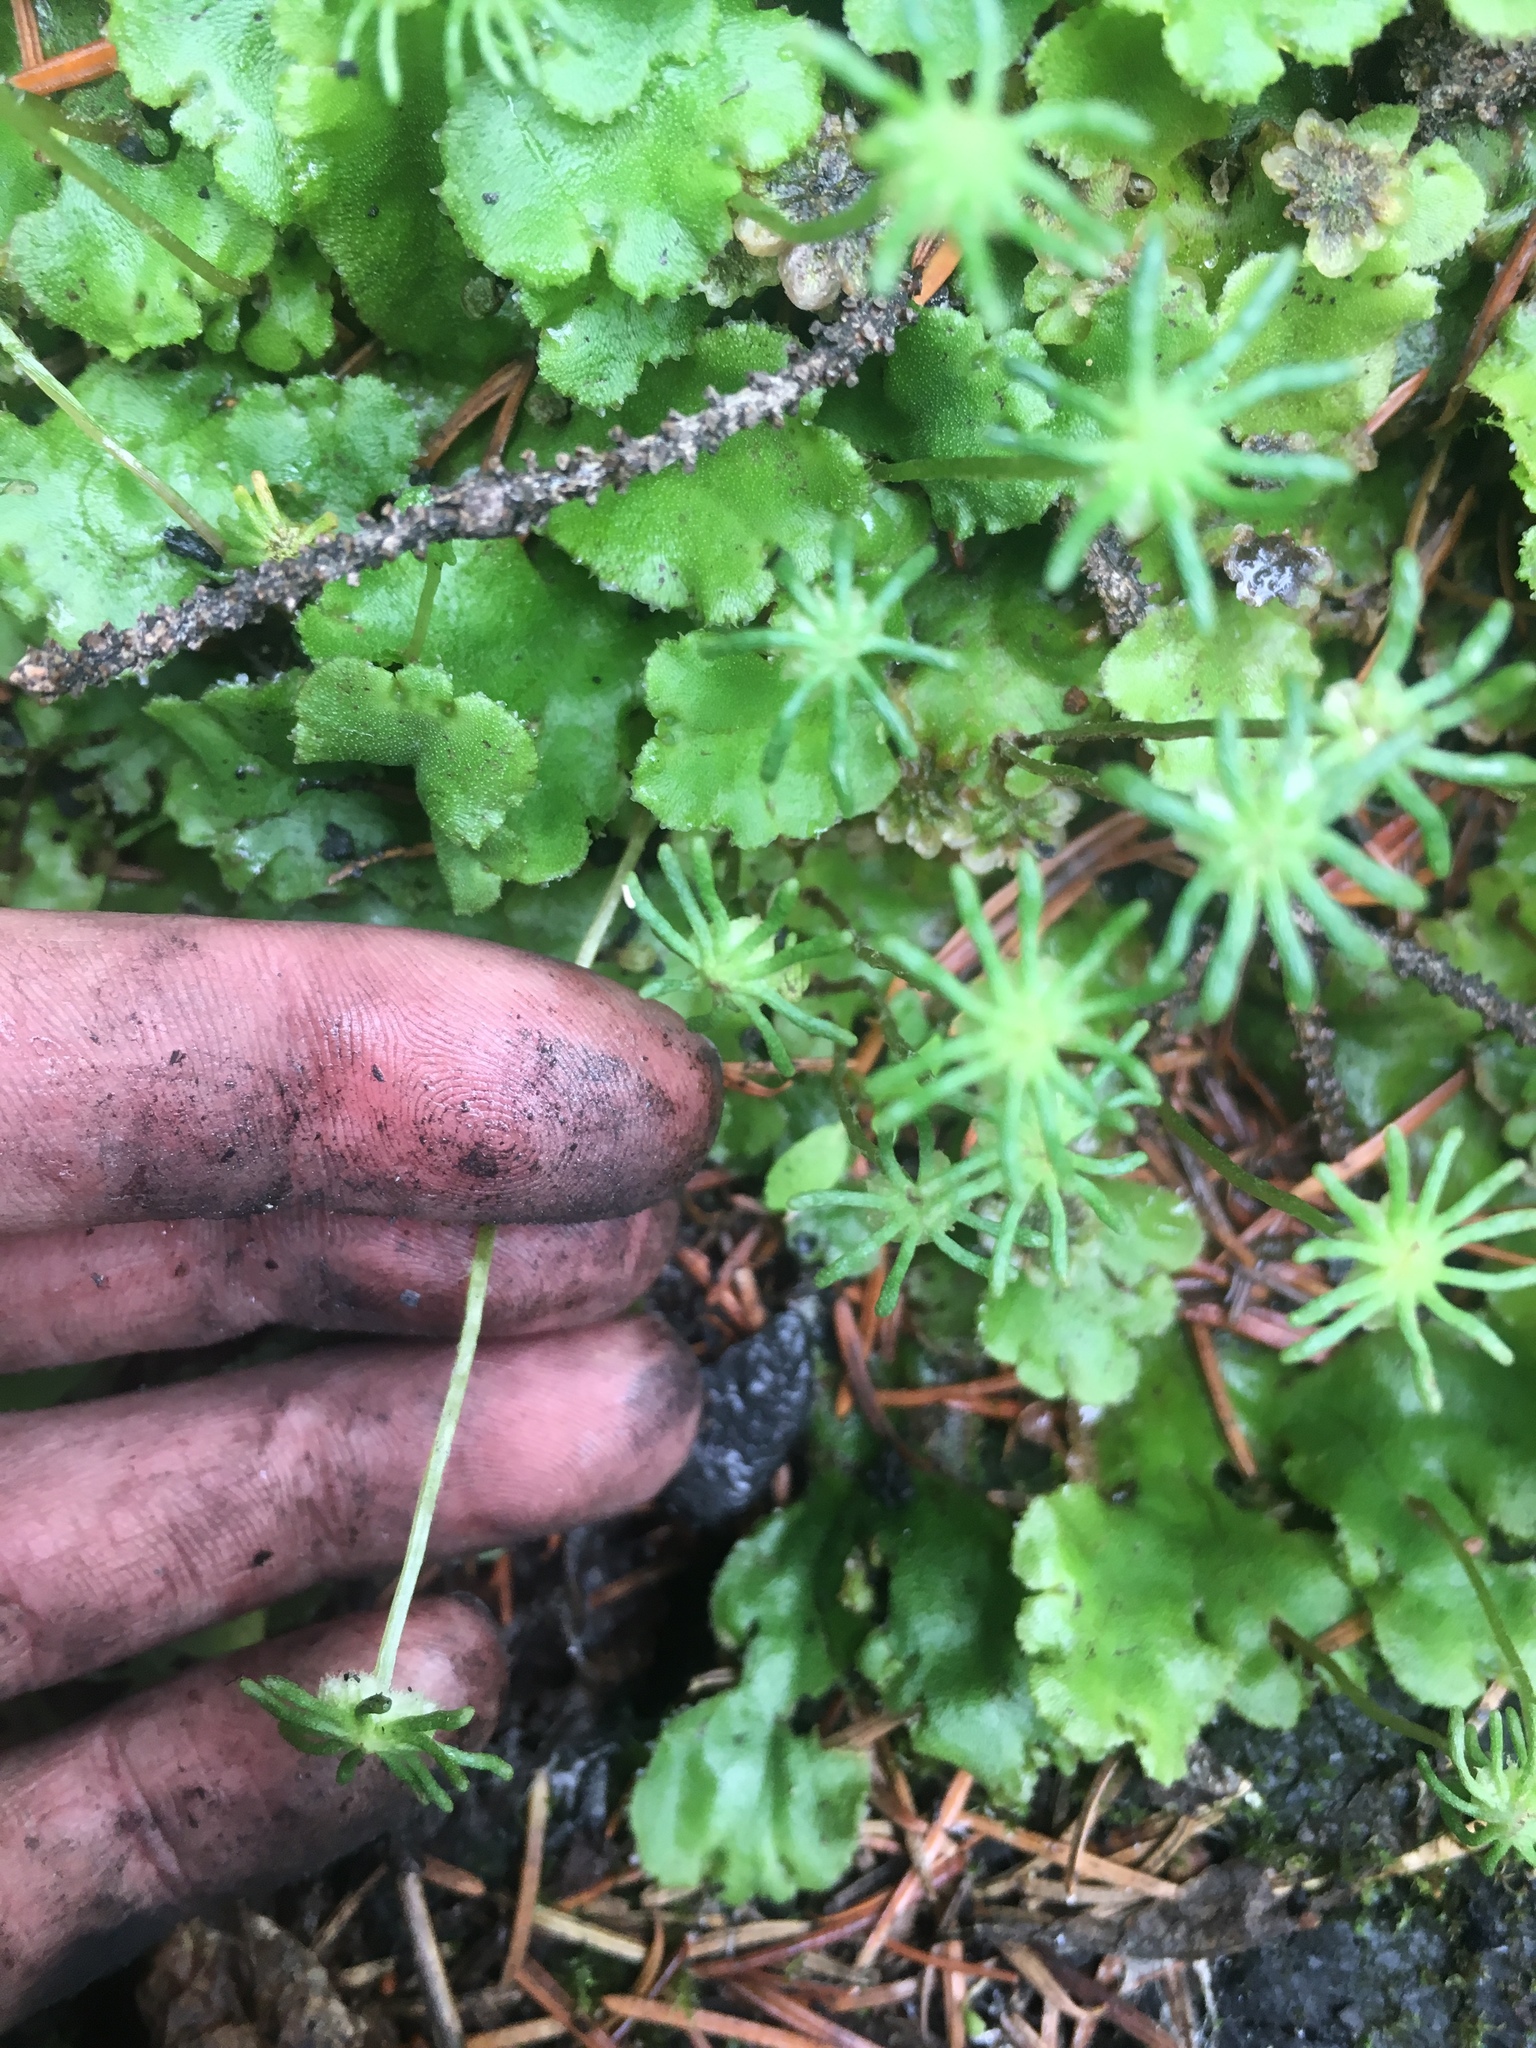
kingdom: Plantae
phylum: Marchantiophyta
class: Marchantiopsida
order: Marchantiales
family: Marchantiaceae
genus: Marchantia
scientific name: Marchantia polymorpha
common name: Common liverwort
